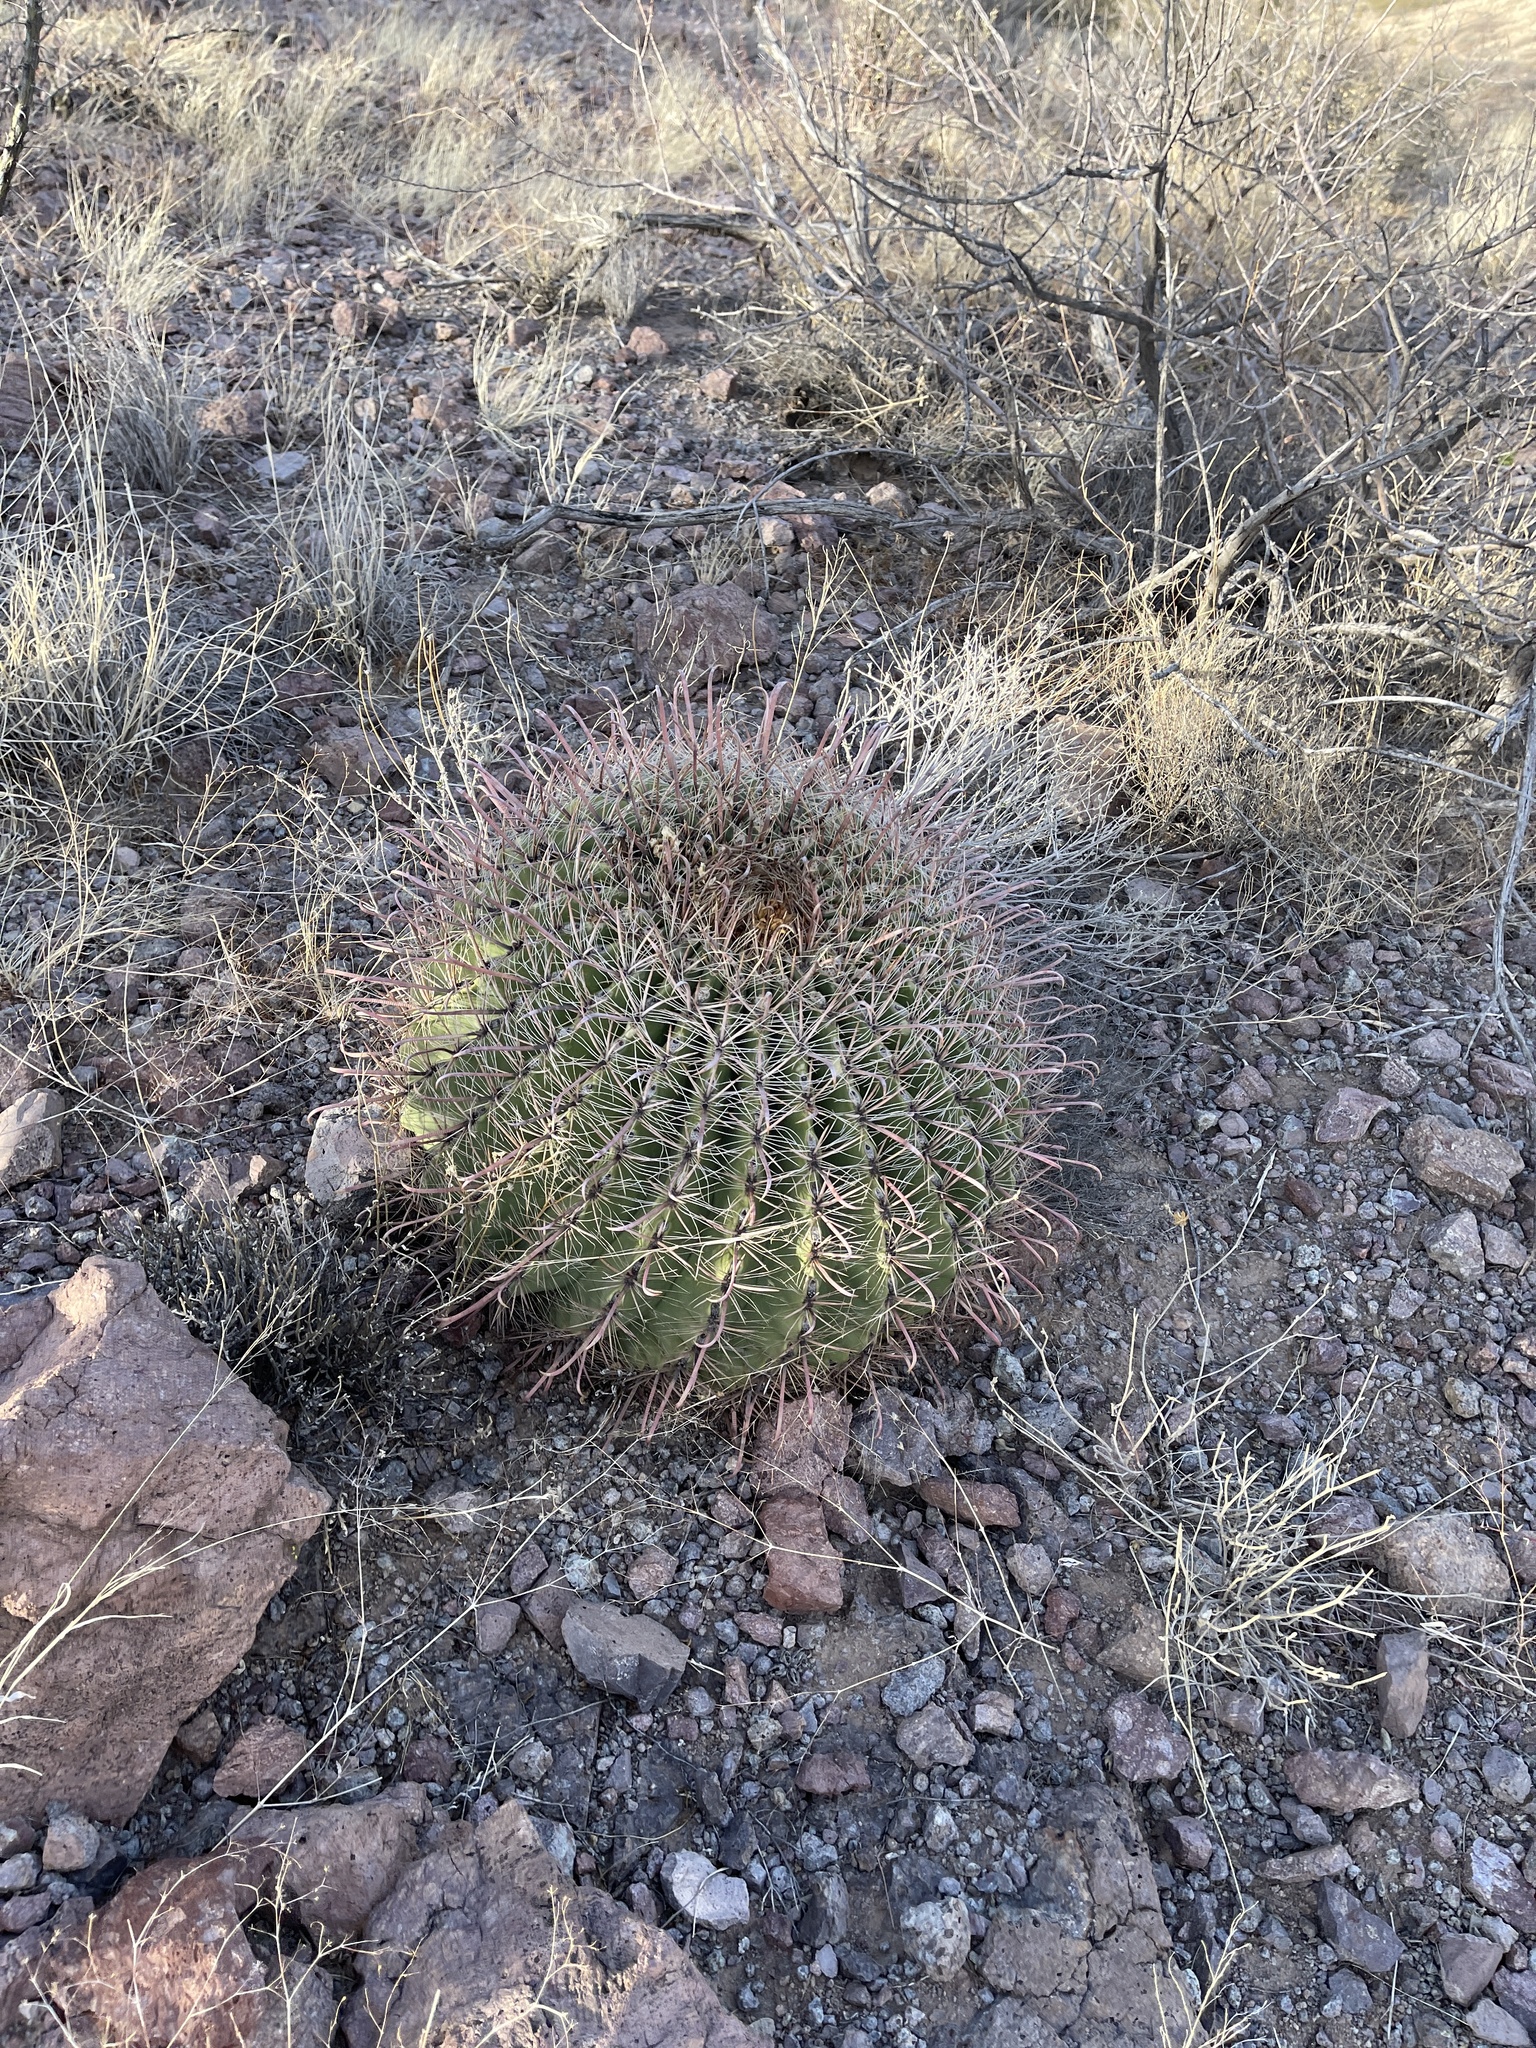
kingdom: Plantae
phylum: Tracheophyta
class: Magnoliopsida
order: Caryophyllales
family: Cactaceae
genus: Ferocactus
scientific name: Ferocactus wislizeni
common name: Candy barrel cactus
